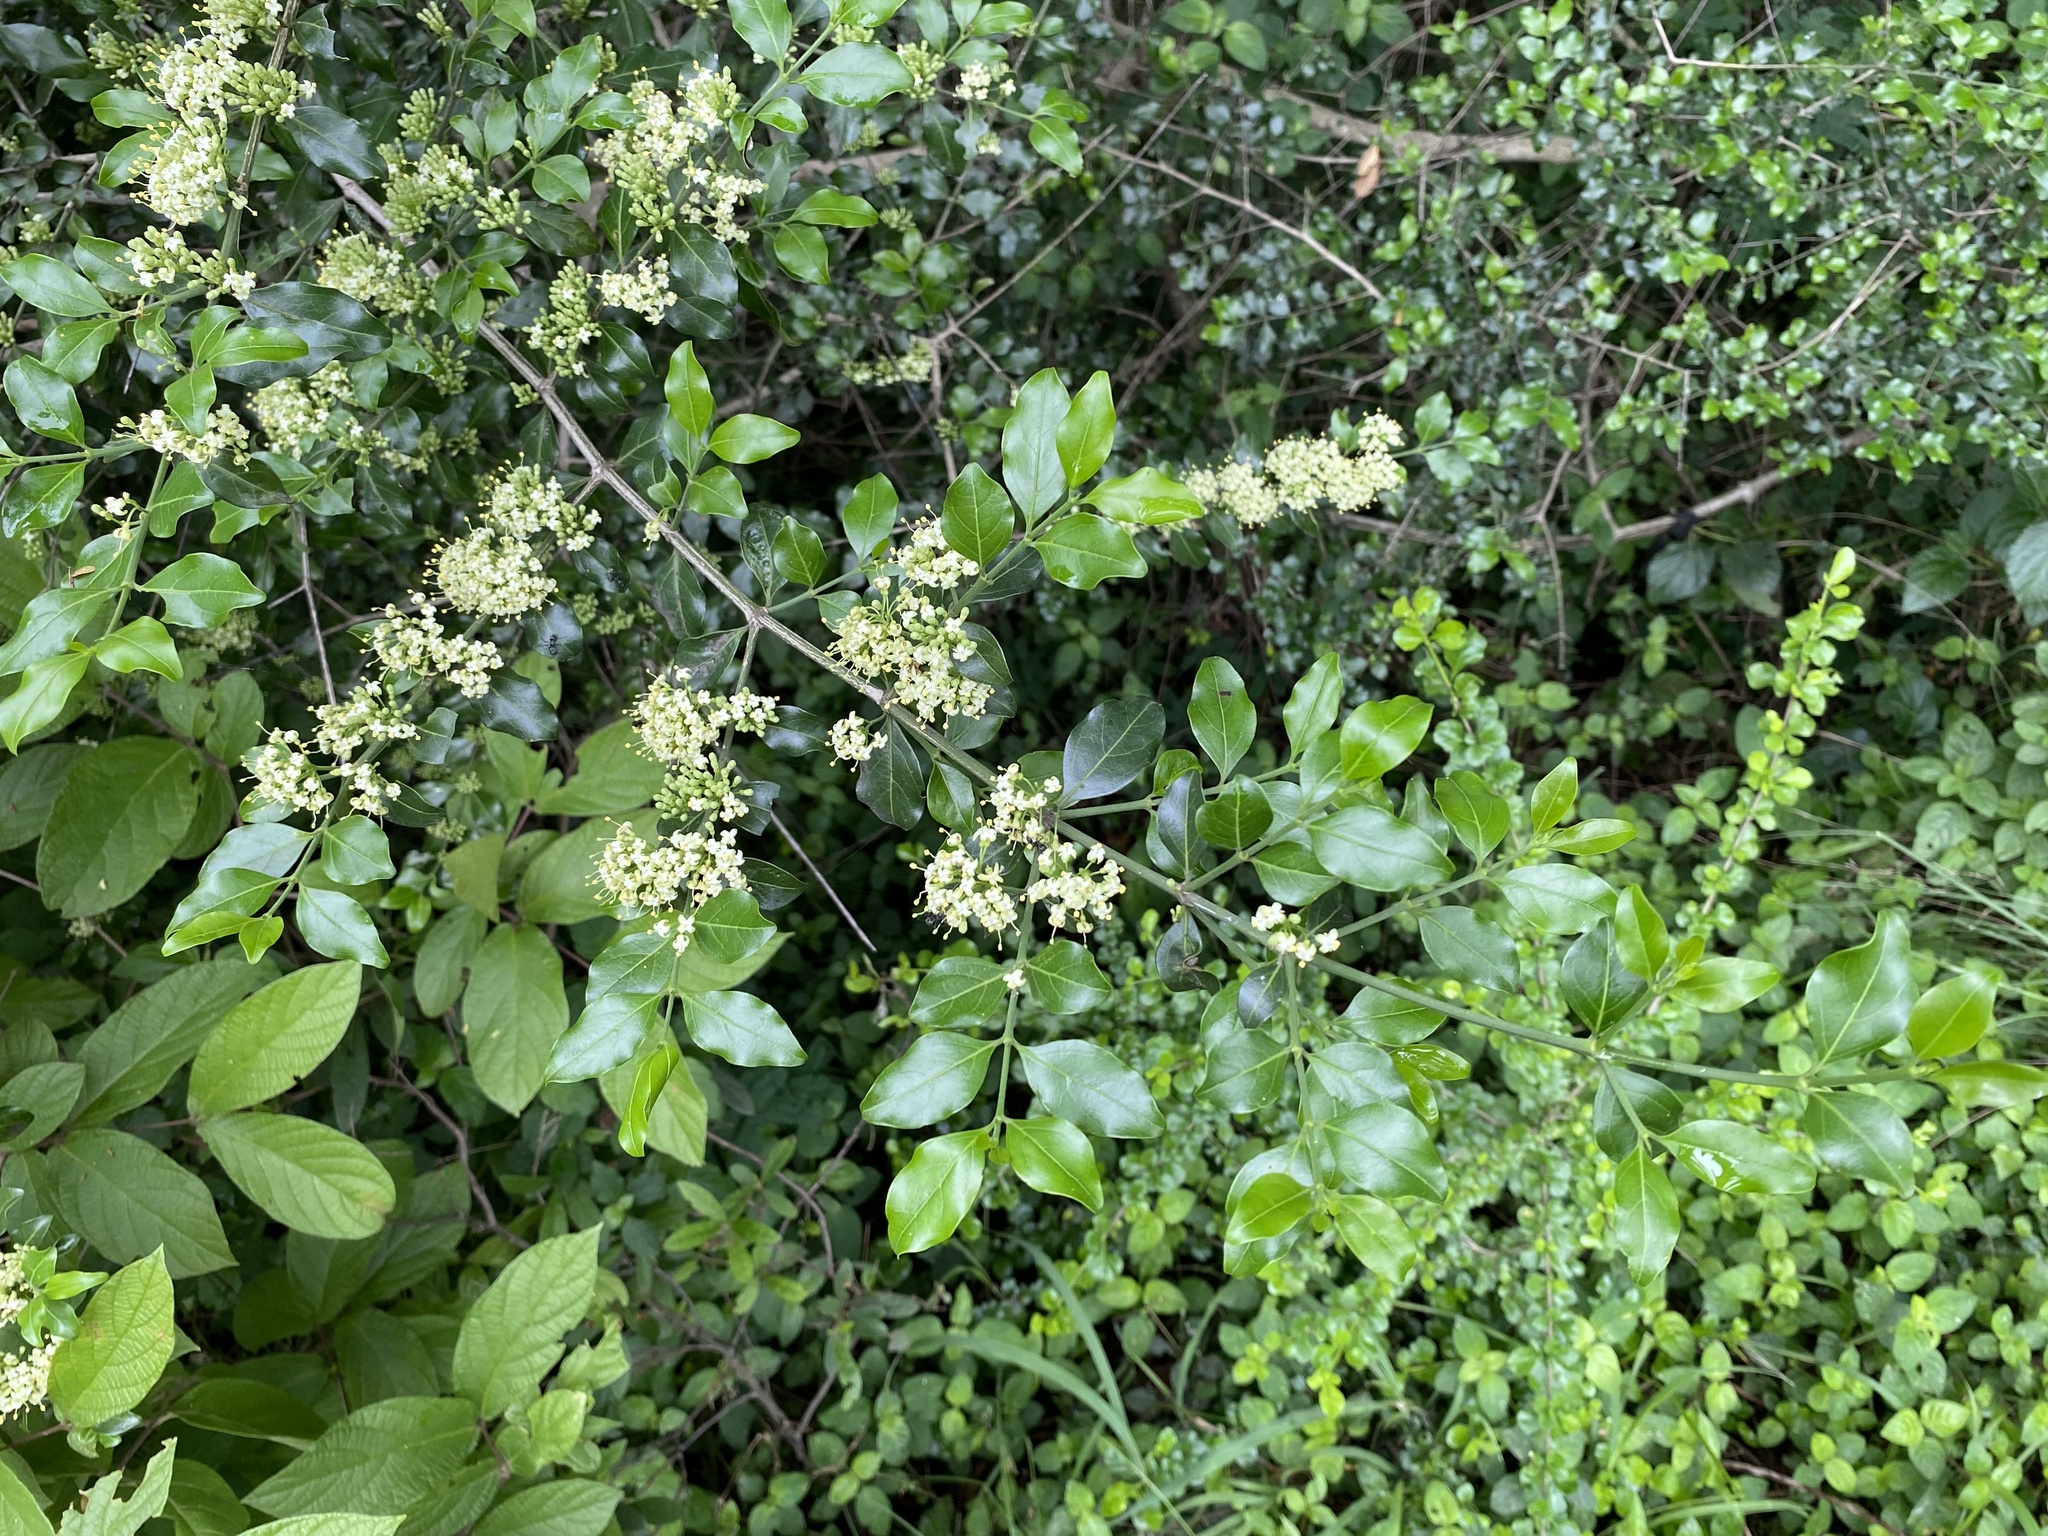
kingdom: Plantae
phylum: Tracheophyta
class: Magnoliopsida
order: Gentianales
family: Rubiaceae
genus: Psydrax
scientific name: Psydrax locuples
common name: Sand quar
